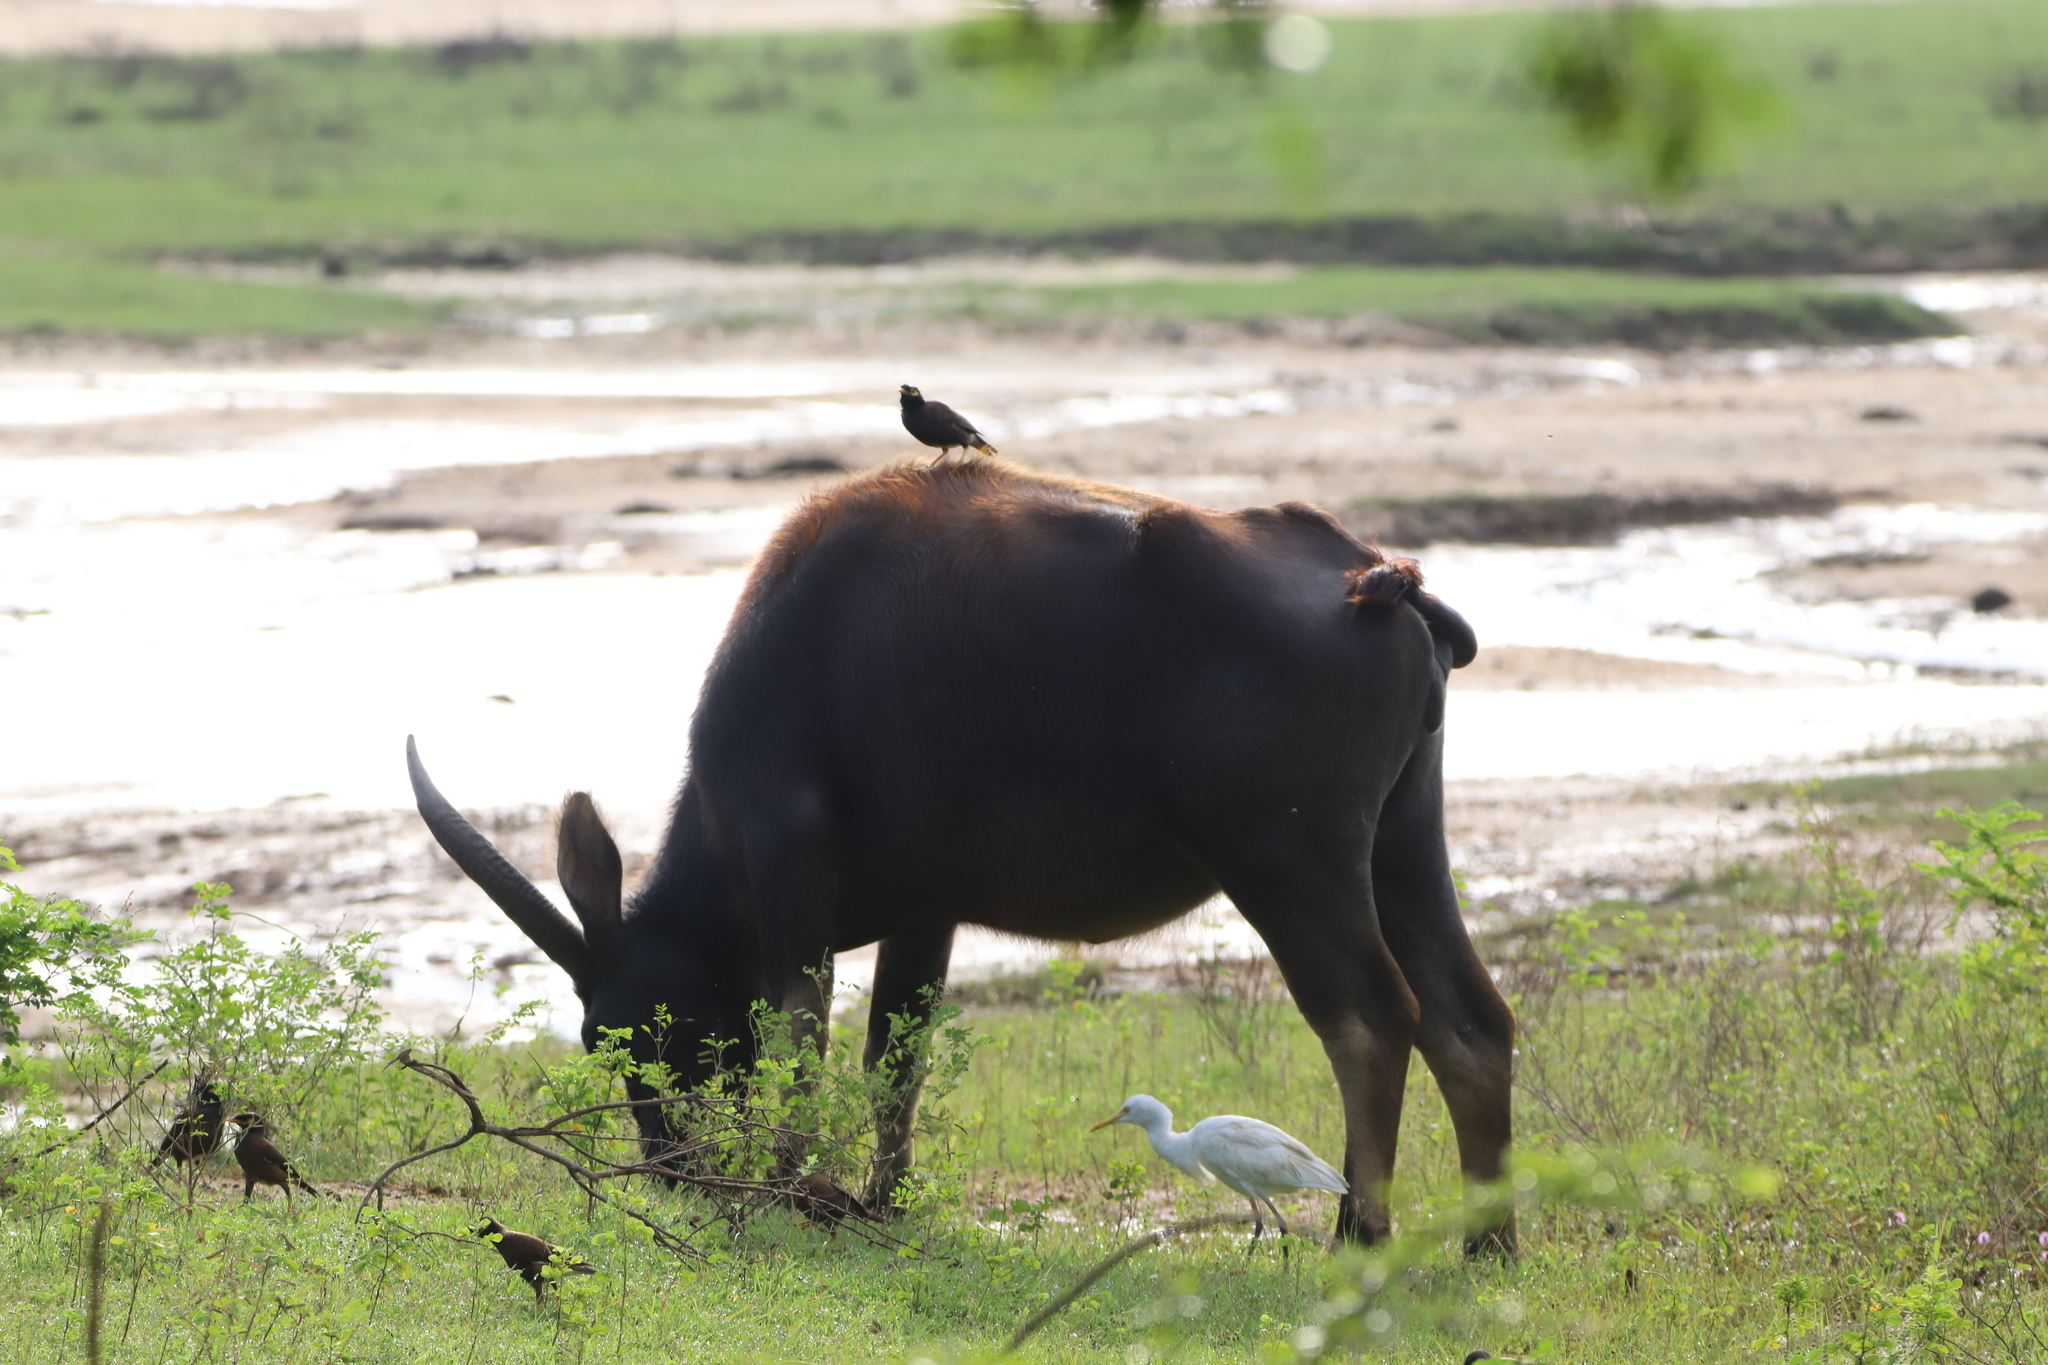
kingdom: Animalia
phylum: Chordata
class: Aves
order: Passeriformes
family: Sturnidae
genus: Acridotheres
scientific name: Acridotheres tristis
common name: Common myna
